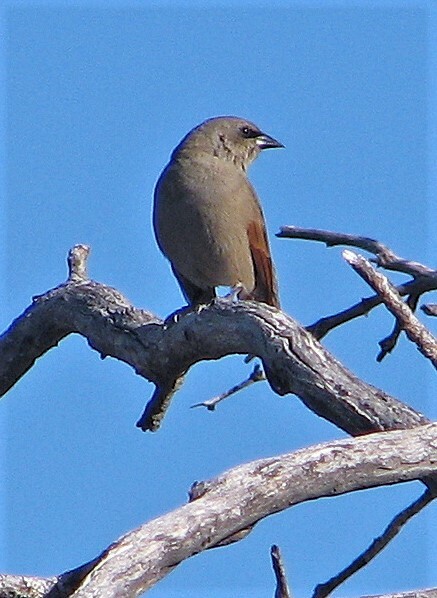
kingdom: Animalia
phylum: Chordata
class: Aves
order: Passeriformes
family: Icteridae
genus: Agelaioides
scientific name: Agelaioides badius
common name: Baywing
